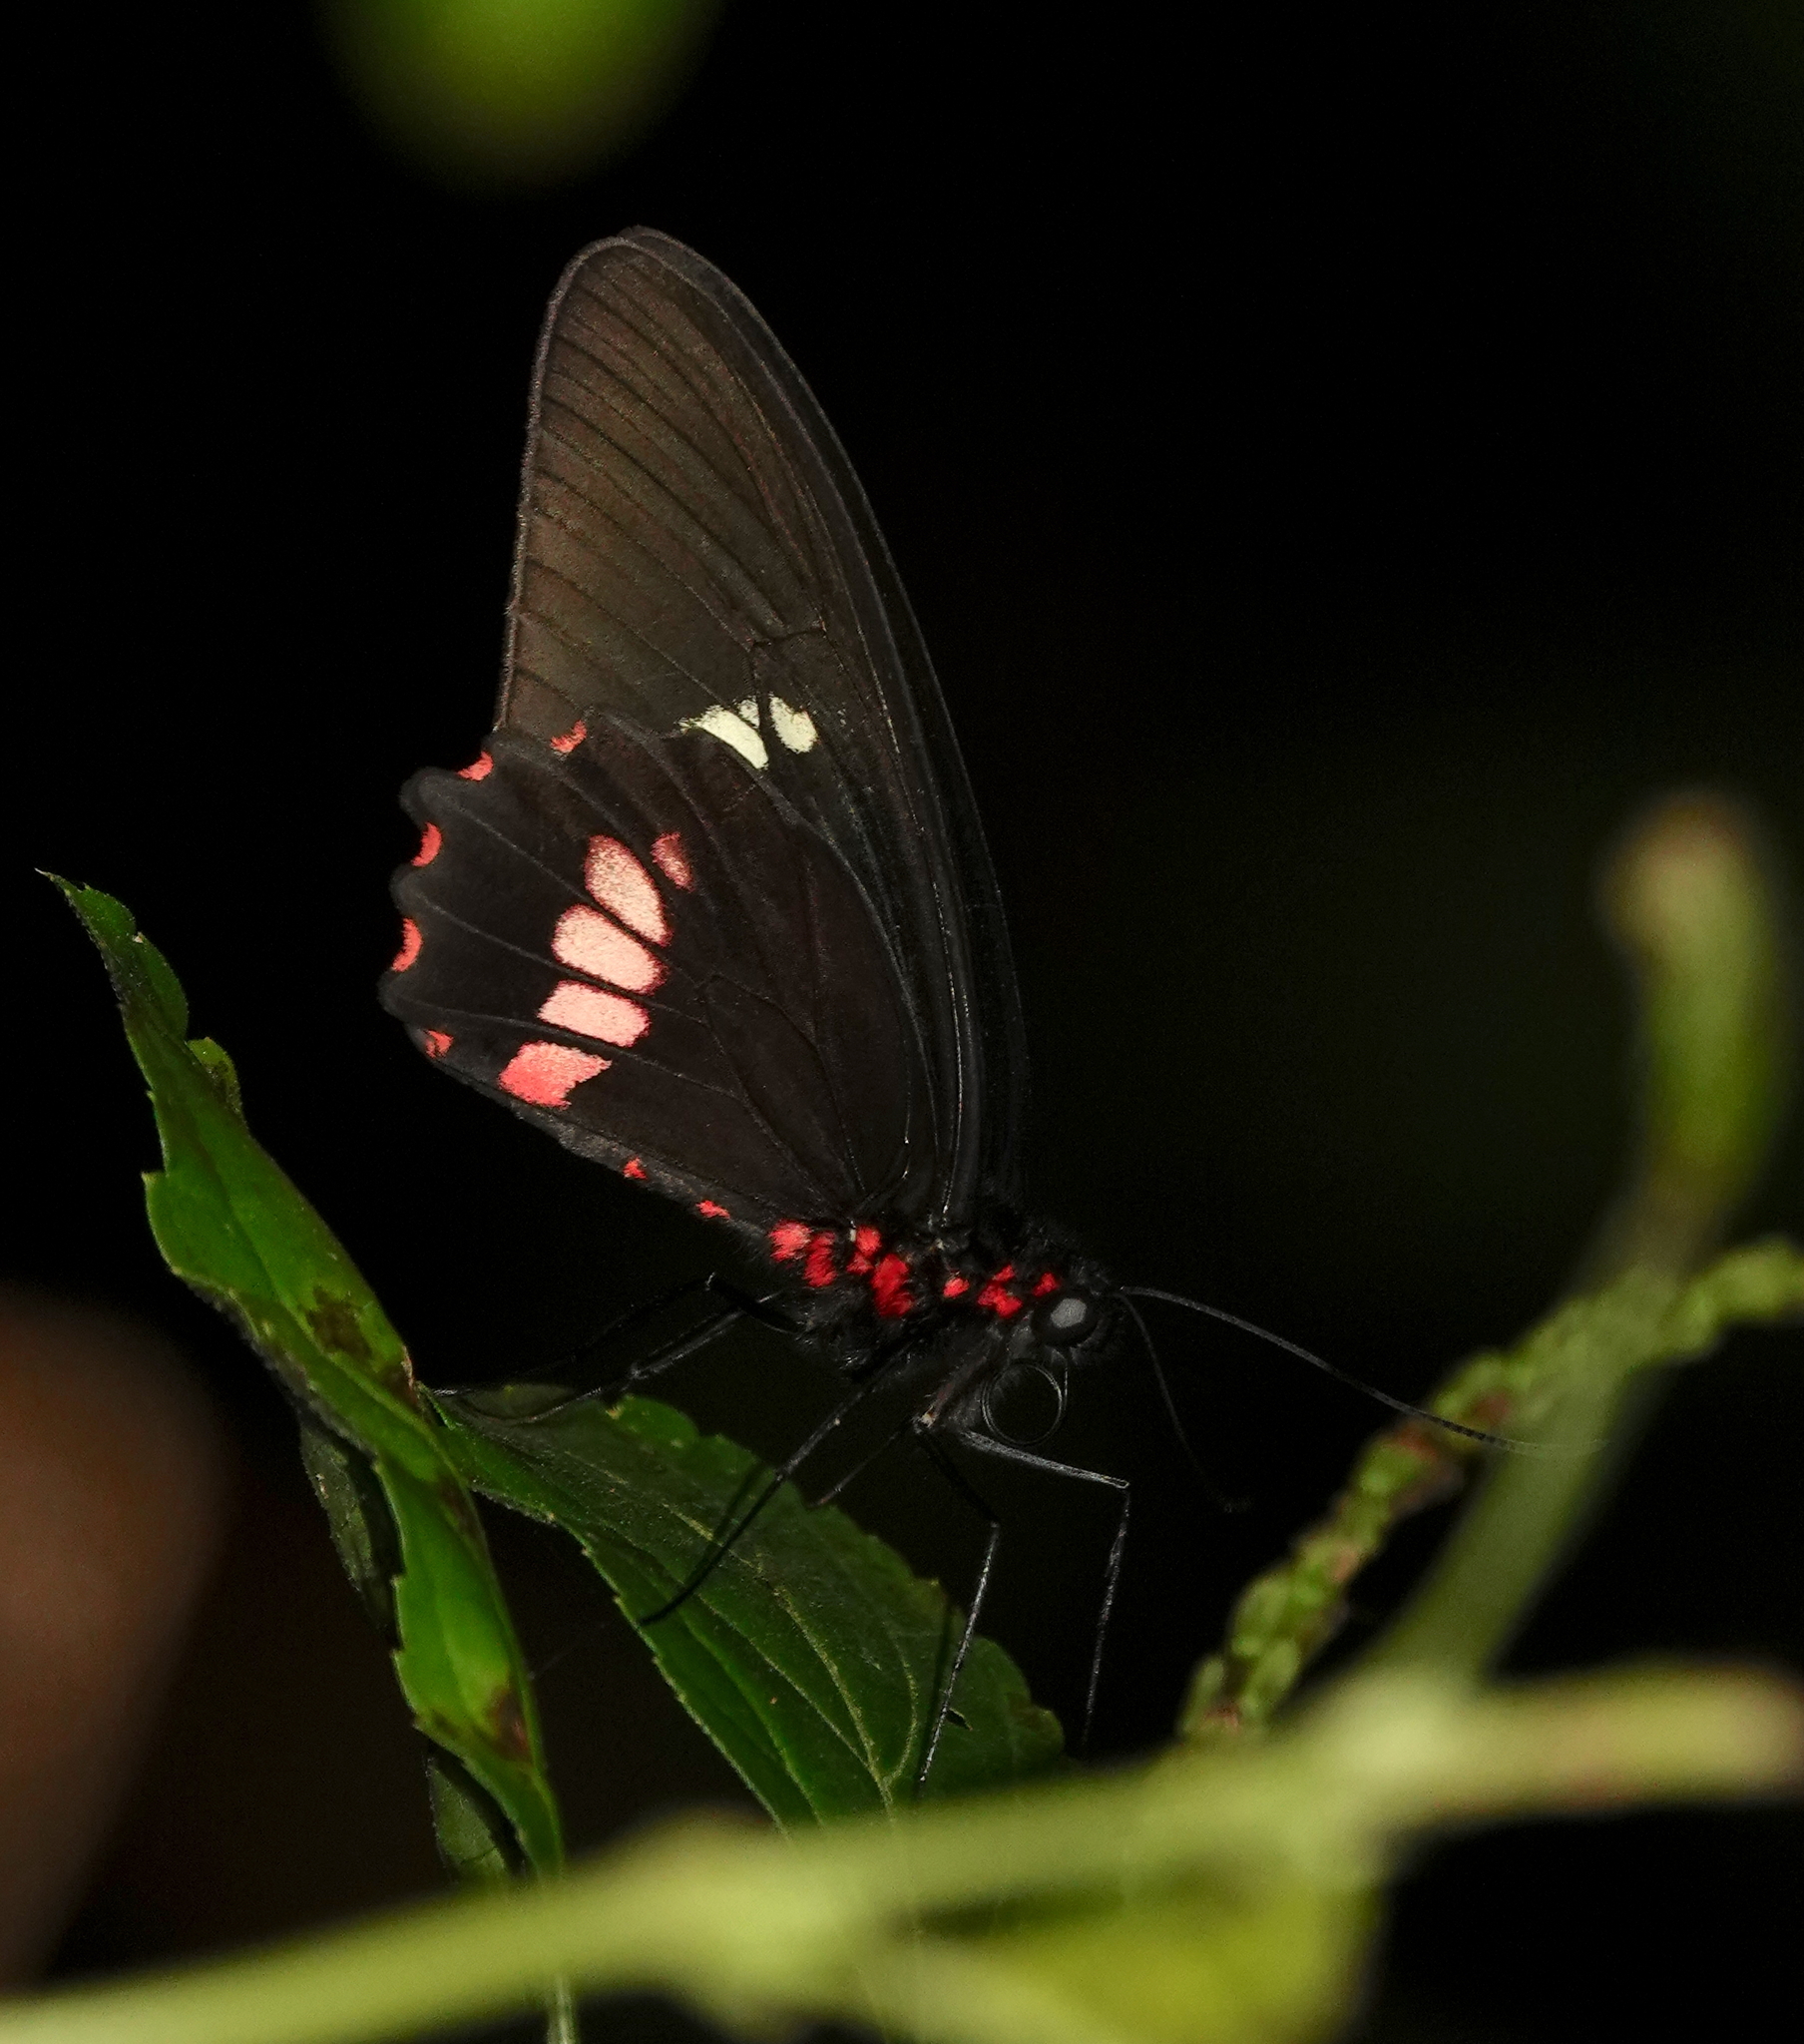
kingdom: Animalia
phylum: Arthropoda
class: Insecta
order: Lepidoptera
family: Papilionidae
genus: Parides
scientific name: Parides eurimedes
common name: True cattleheart
